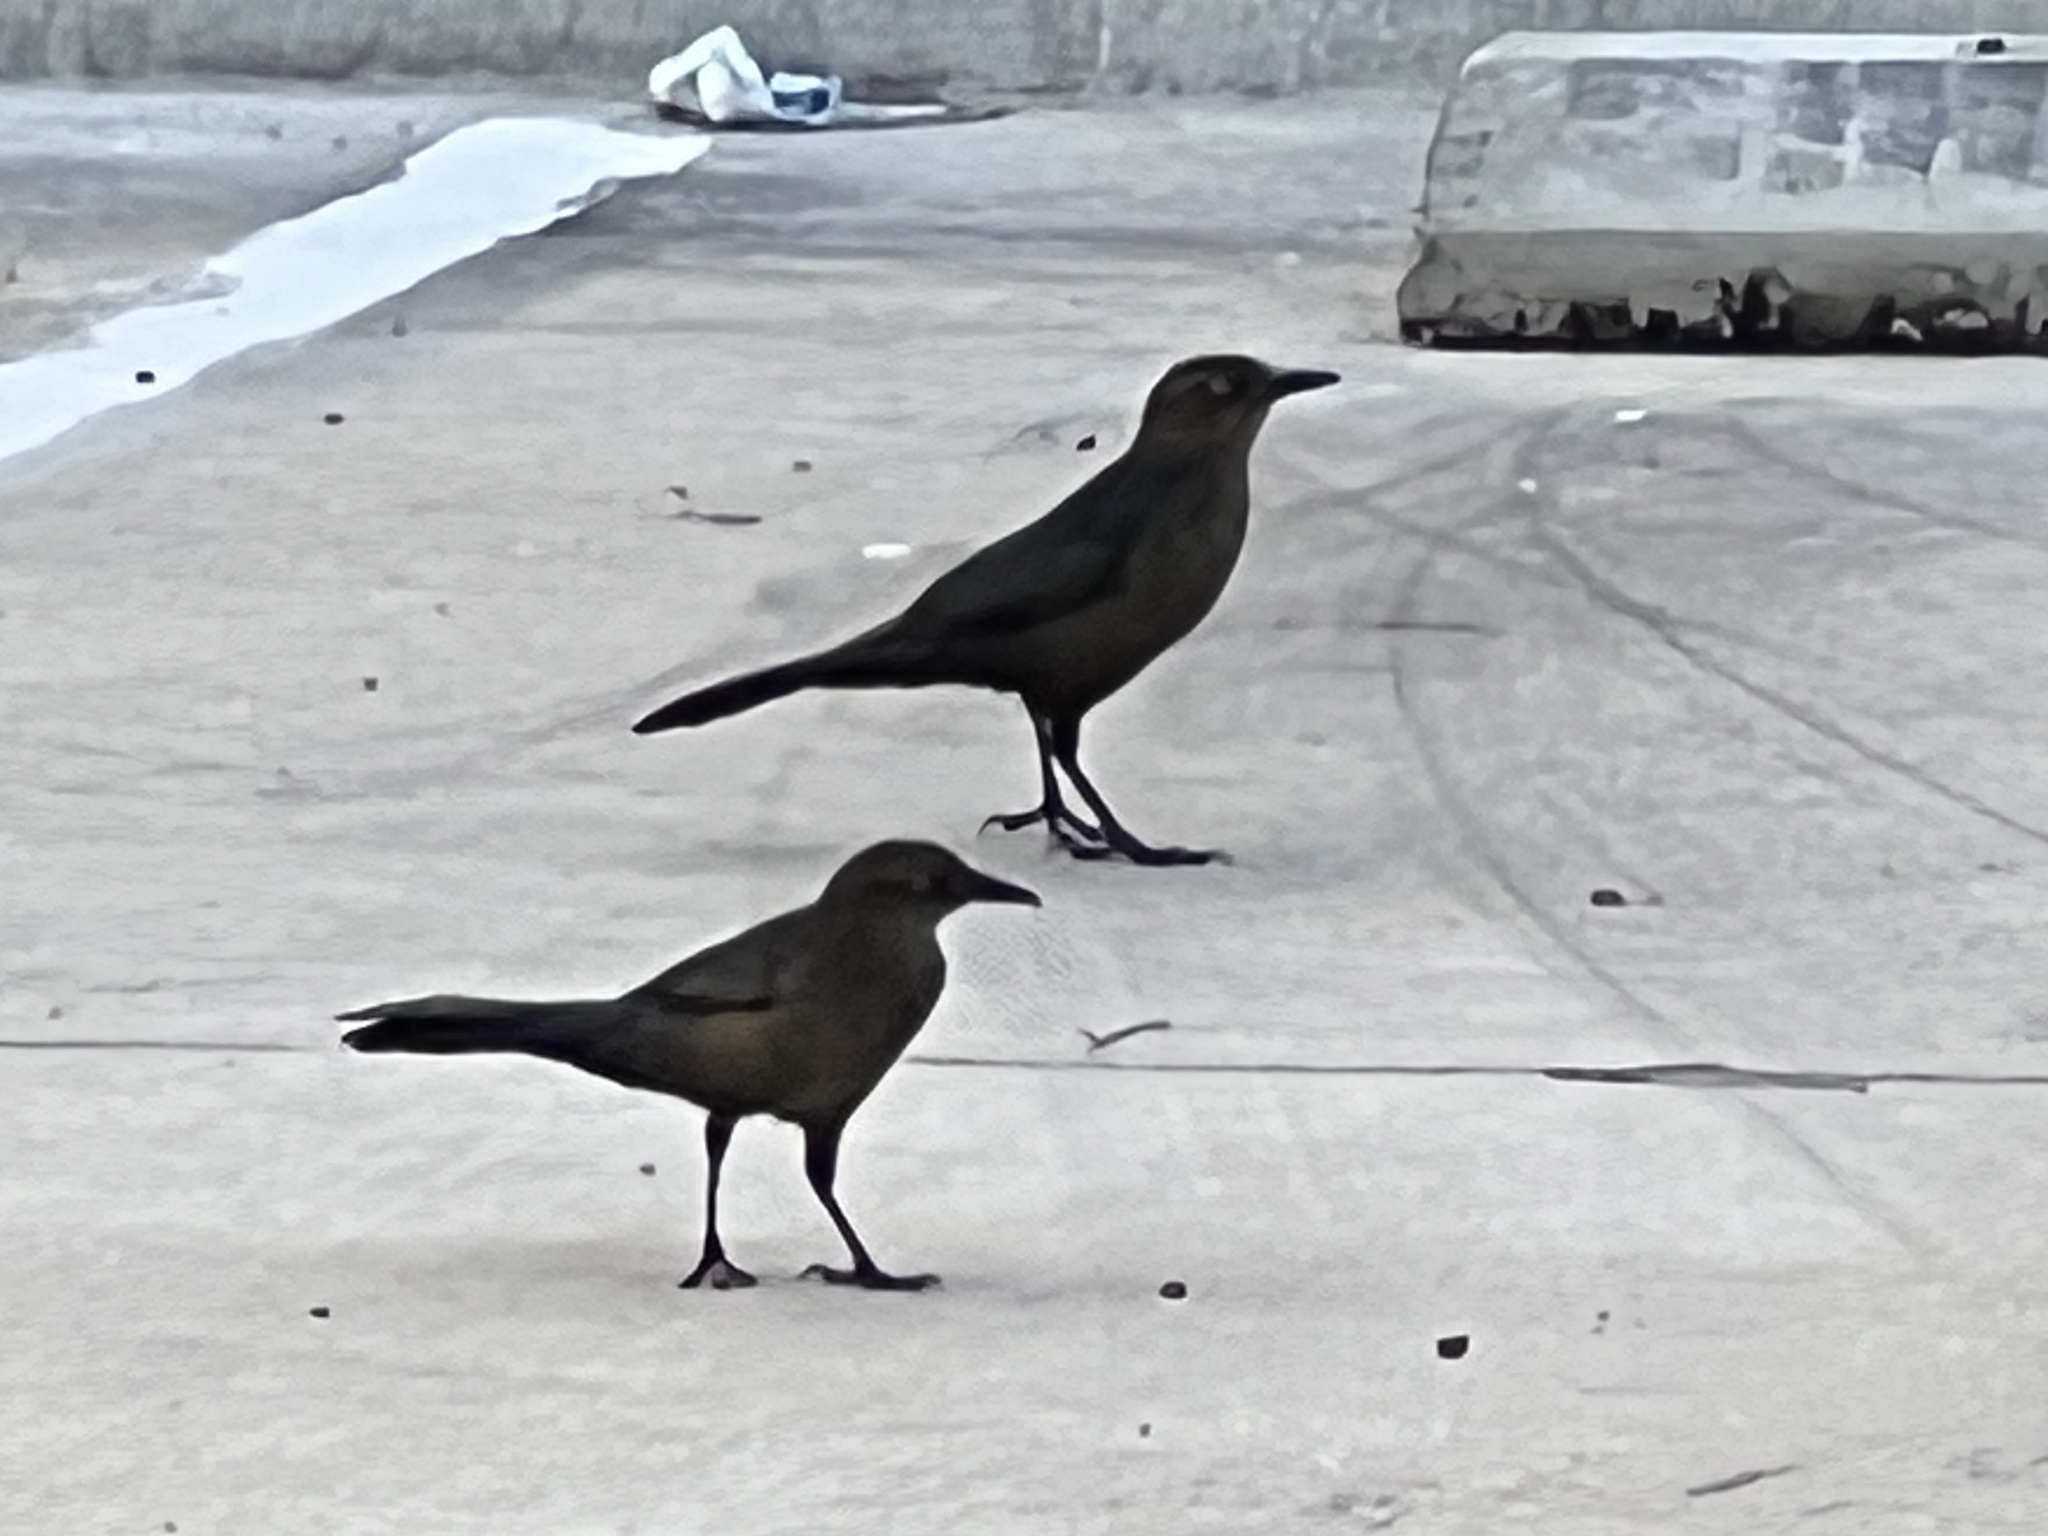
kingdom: Animalia
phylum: Chordata
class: Aves
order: Passeriformes
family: Icteridae
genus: Quiscalus
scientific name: Quiscalus mexicanus
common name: Great-tailed grackle
